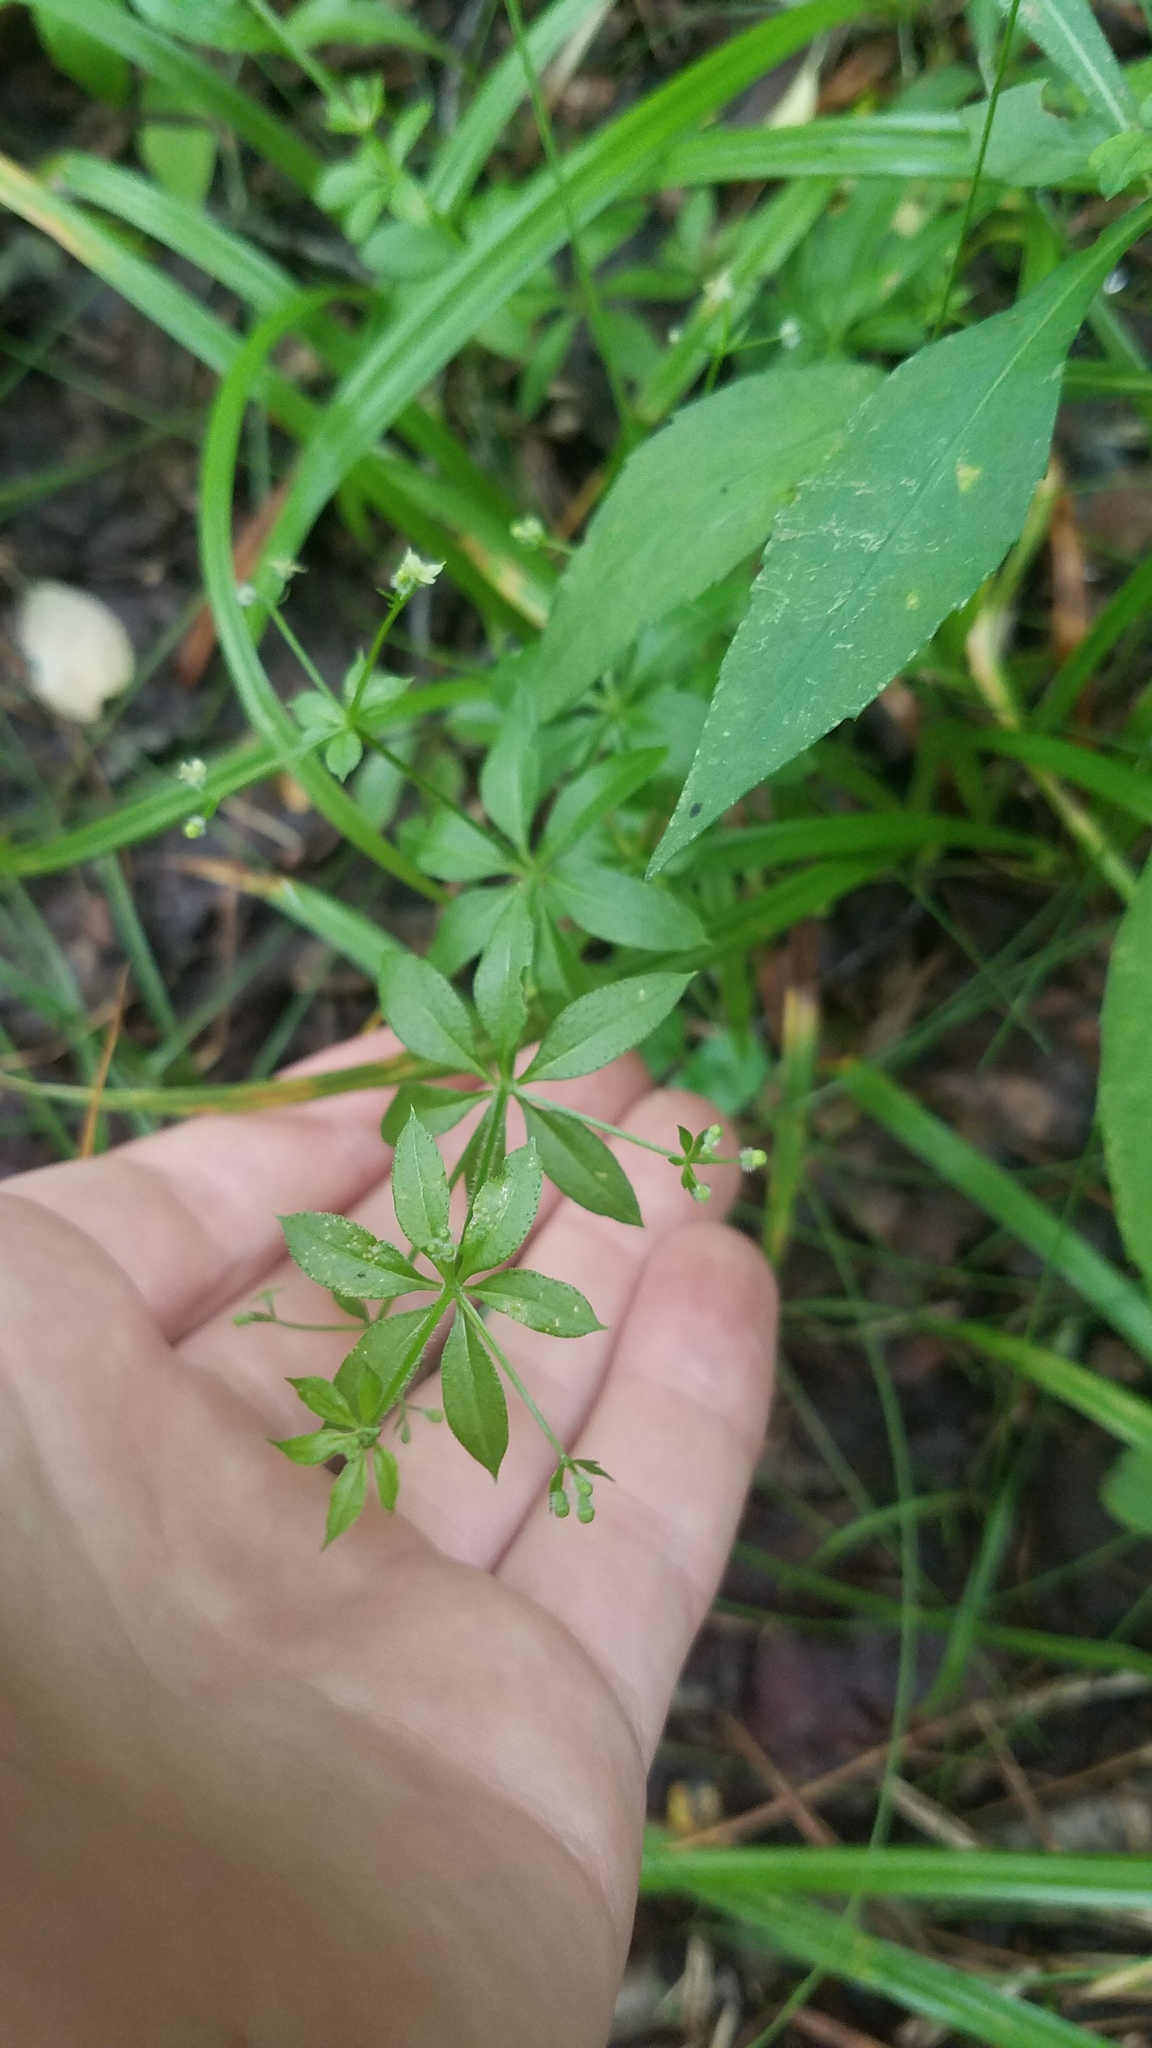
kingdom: Plantae
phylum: Tracheophyta
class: Magnoliopsida
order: Gentianales
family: Rubiaceae
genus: Galium
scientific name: Galium triflorum
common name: Fragrant bedstraw
